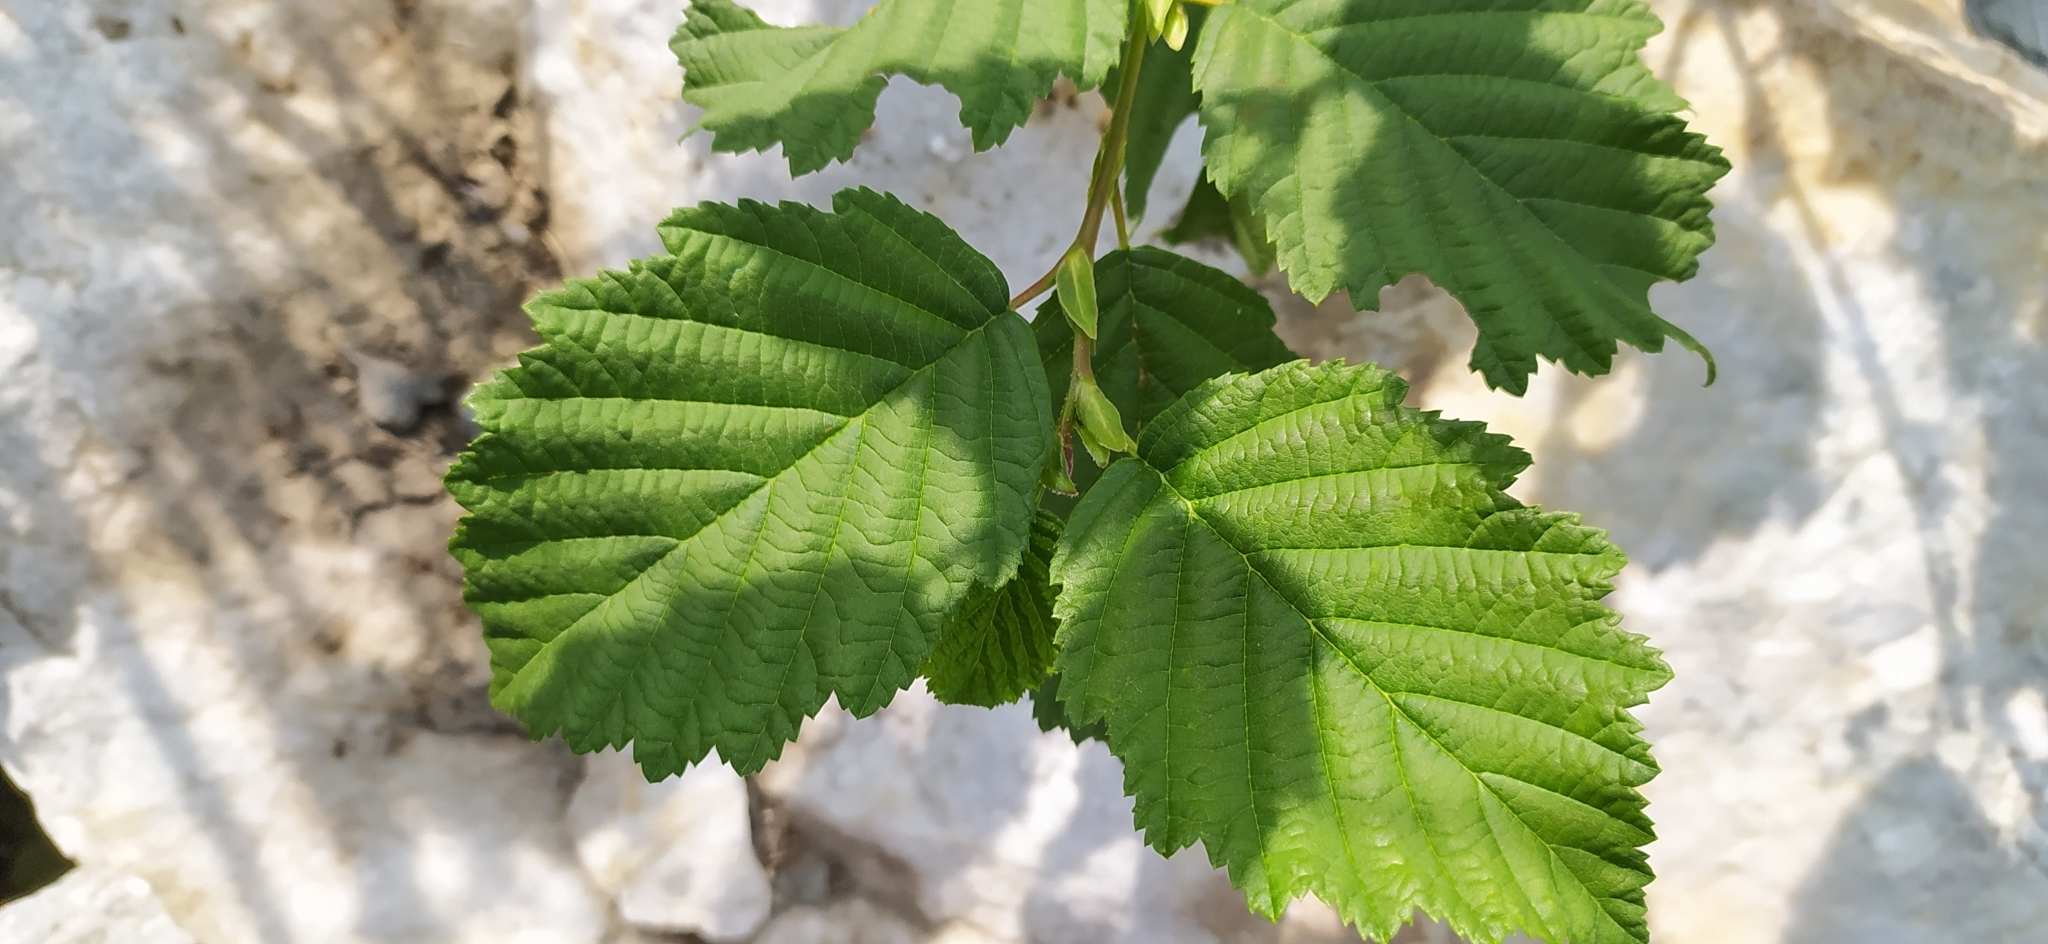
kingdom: Plantae
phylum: Tracheophyta
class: Magnoliopsida
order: Fagales
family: Betulaceae
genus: Alnus
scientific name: Alnus incana
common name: Grey alder
